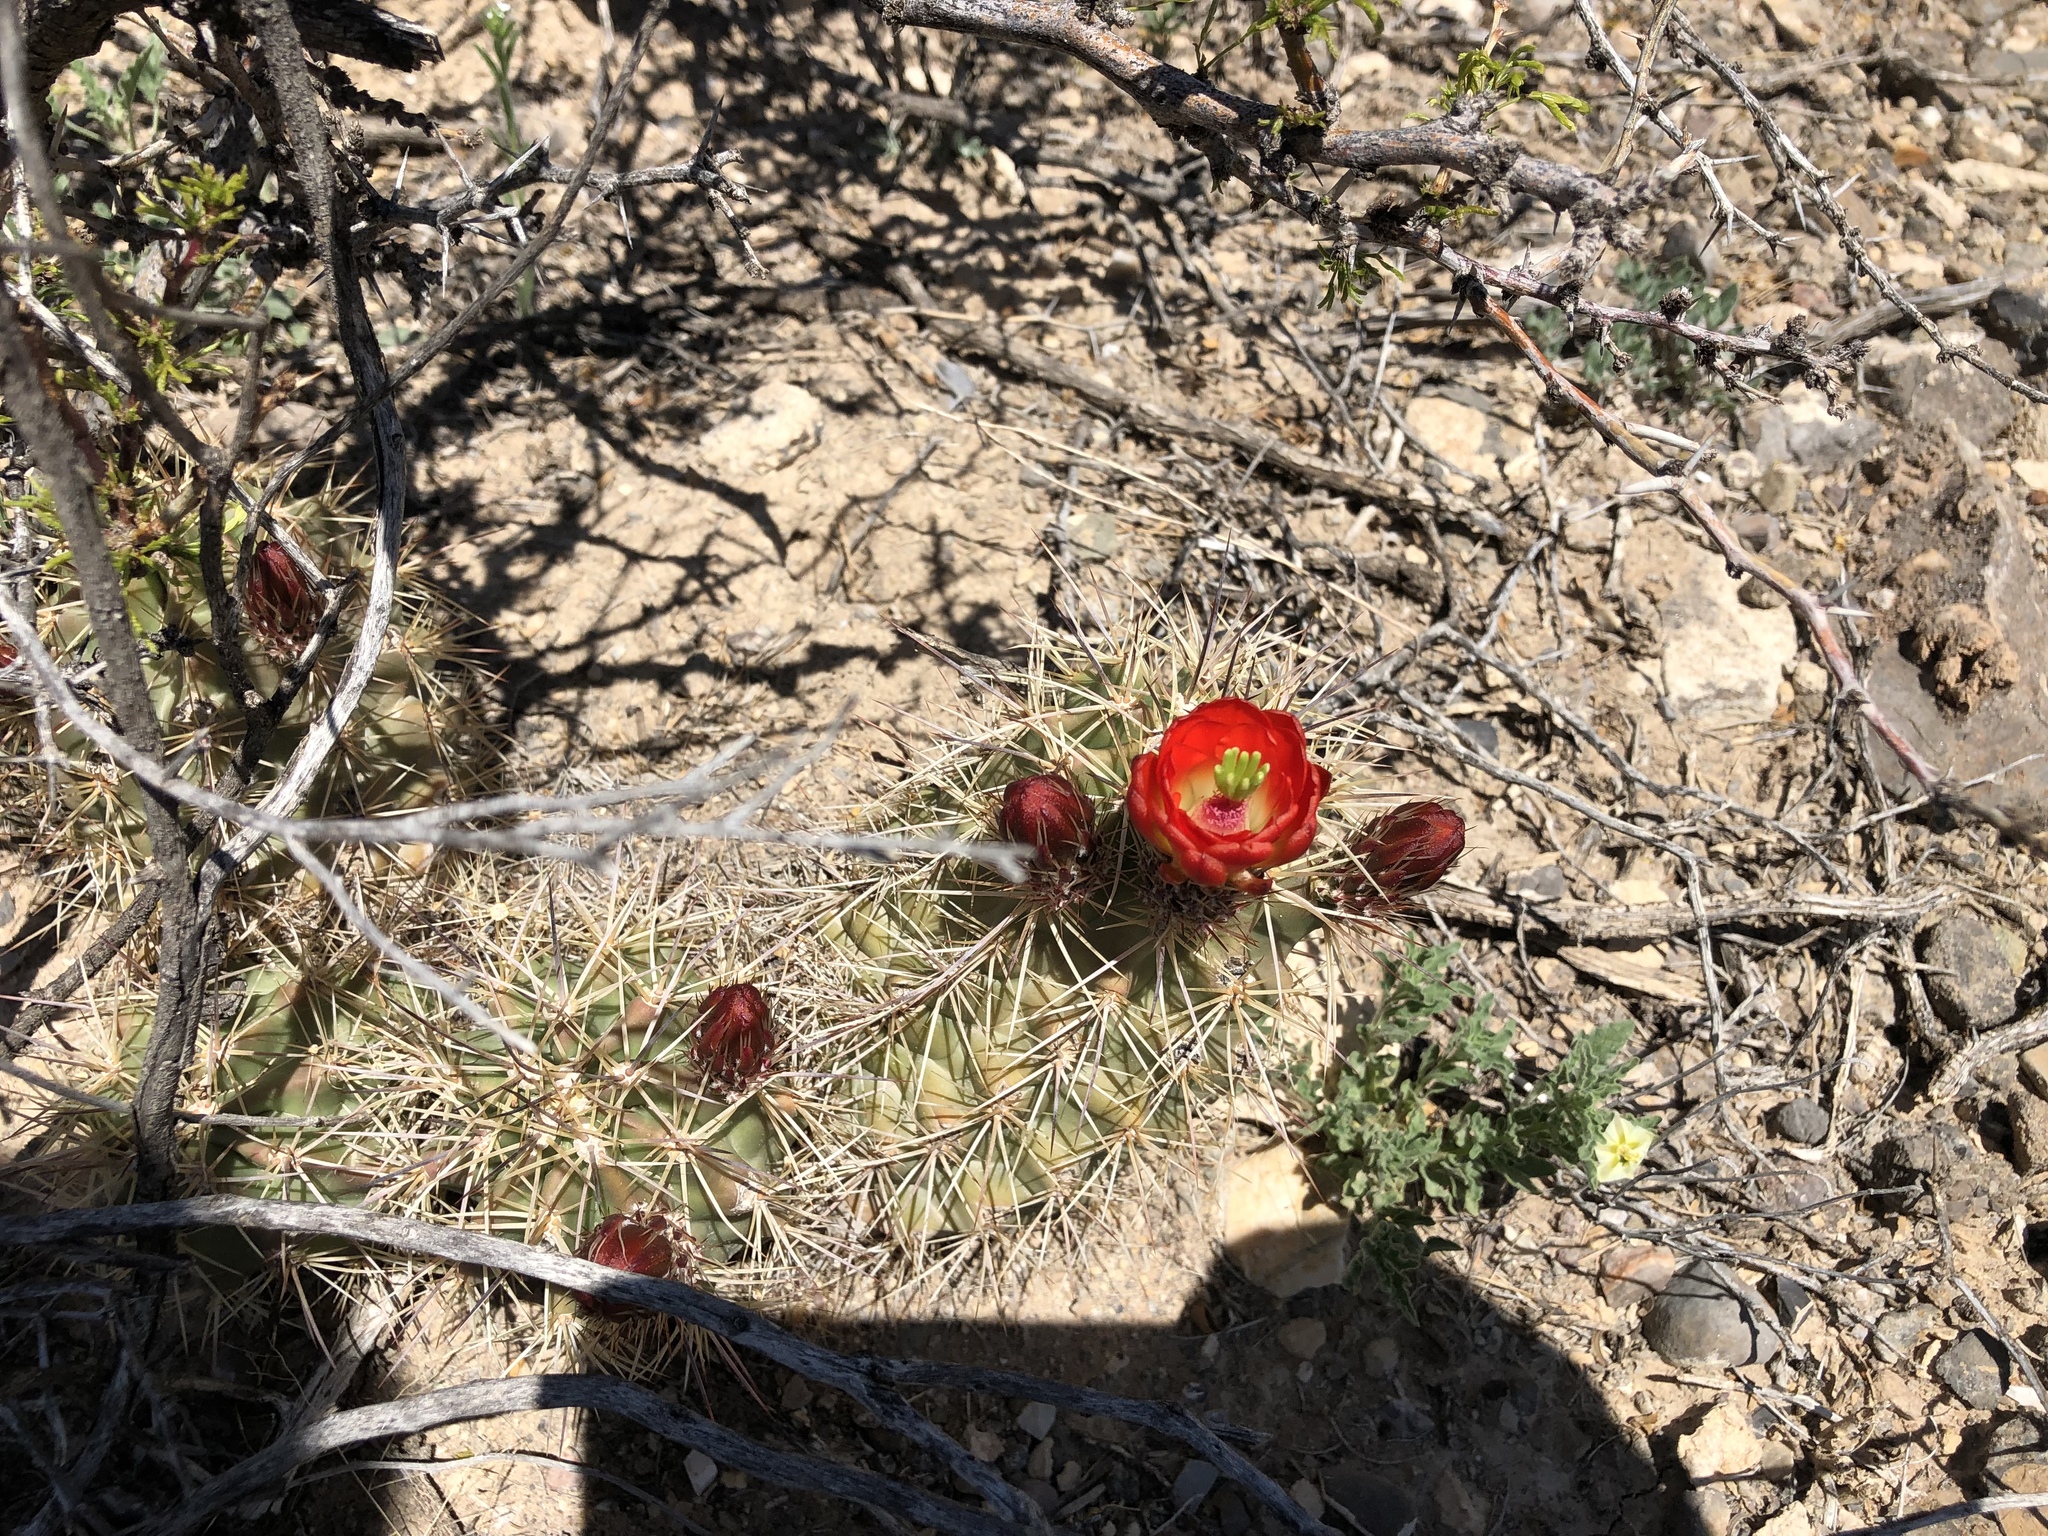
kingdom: Plantae
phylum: Tracheophyta
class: Magnoliopsida
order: Caryophyllales
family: Cactaceae
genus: Echinocereus
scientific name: Echinocereus coccineus
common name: Scarlet hedgehog cactus
